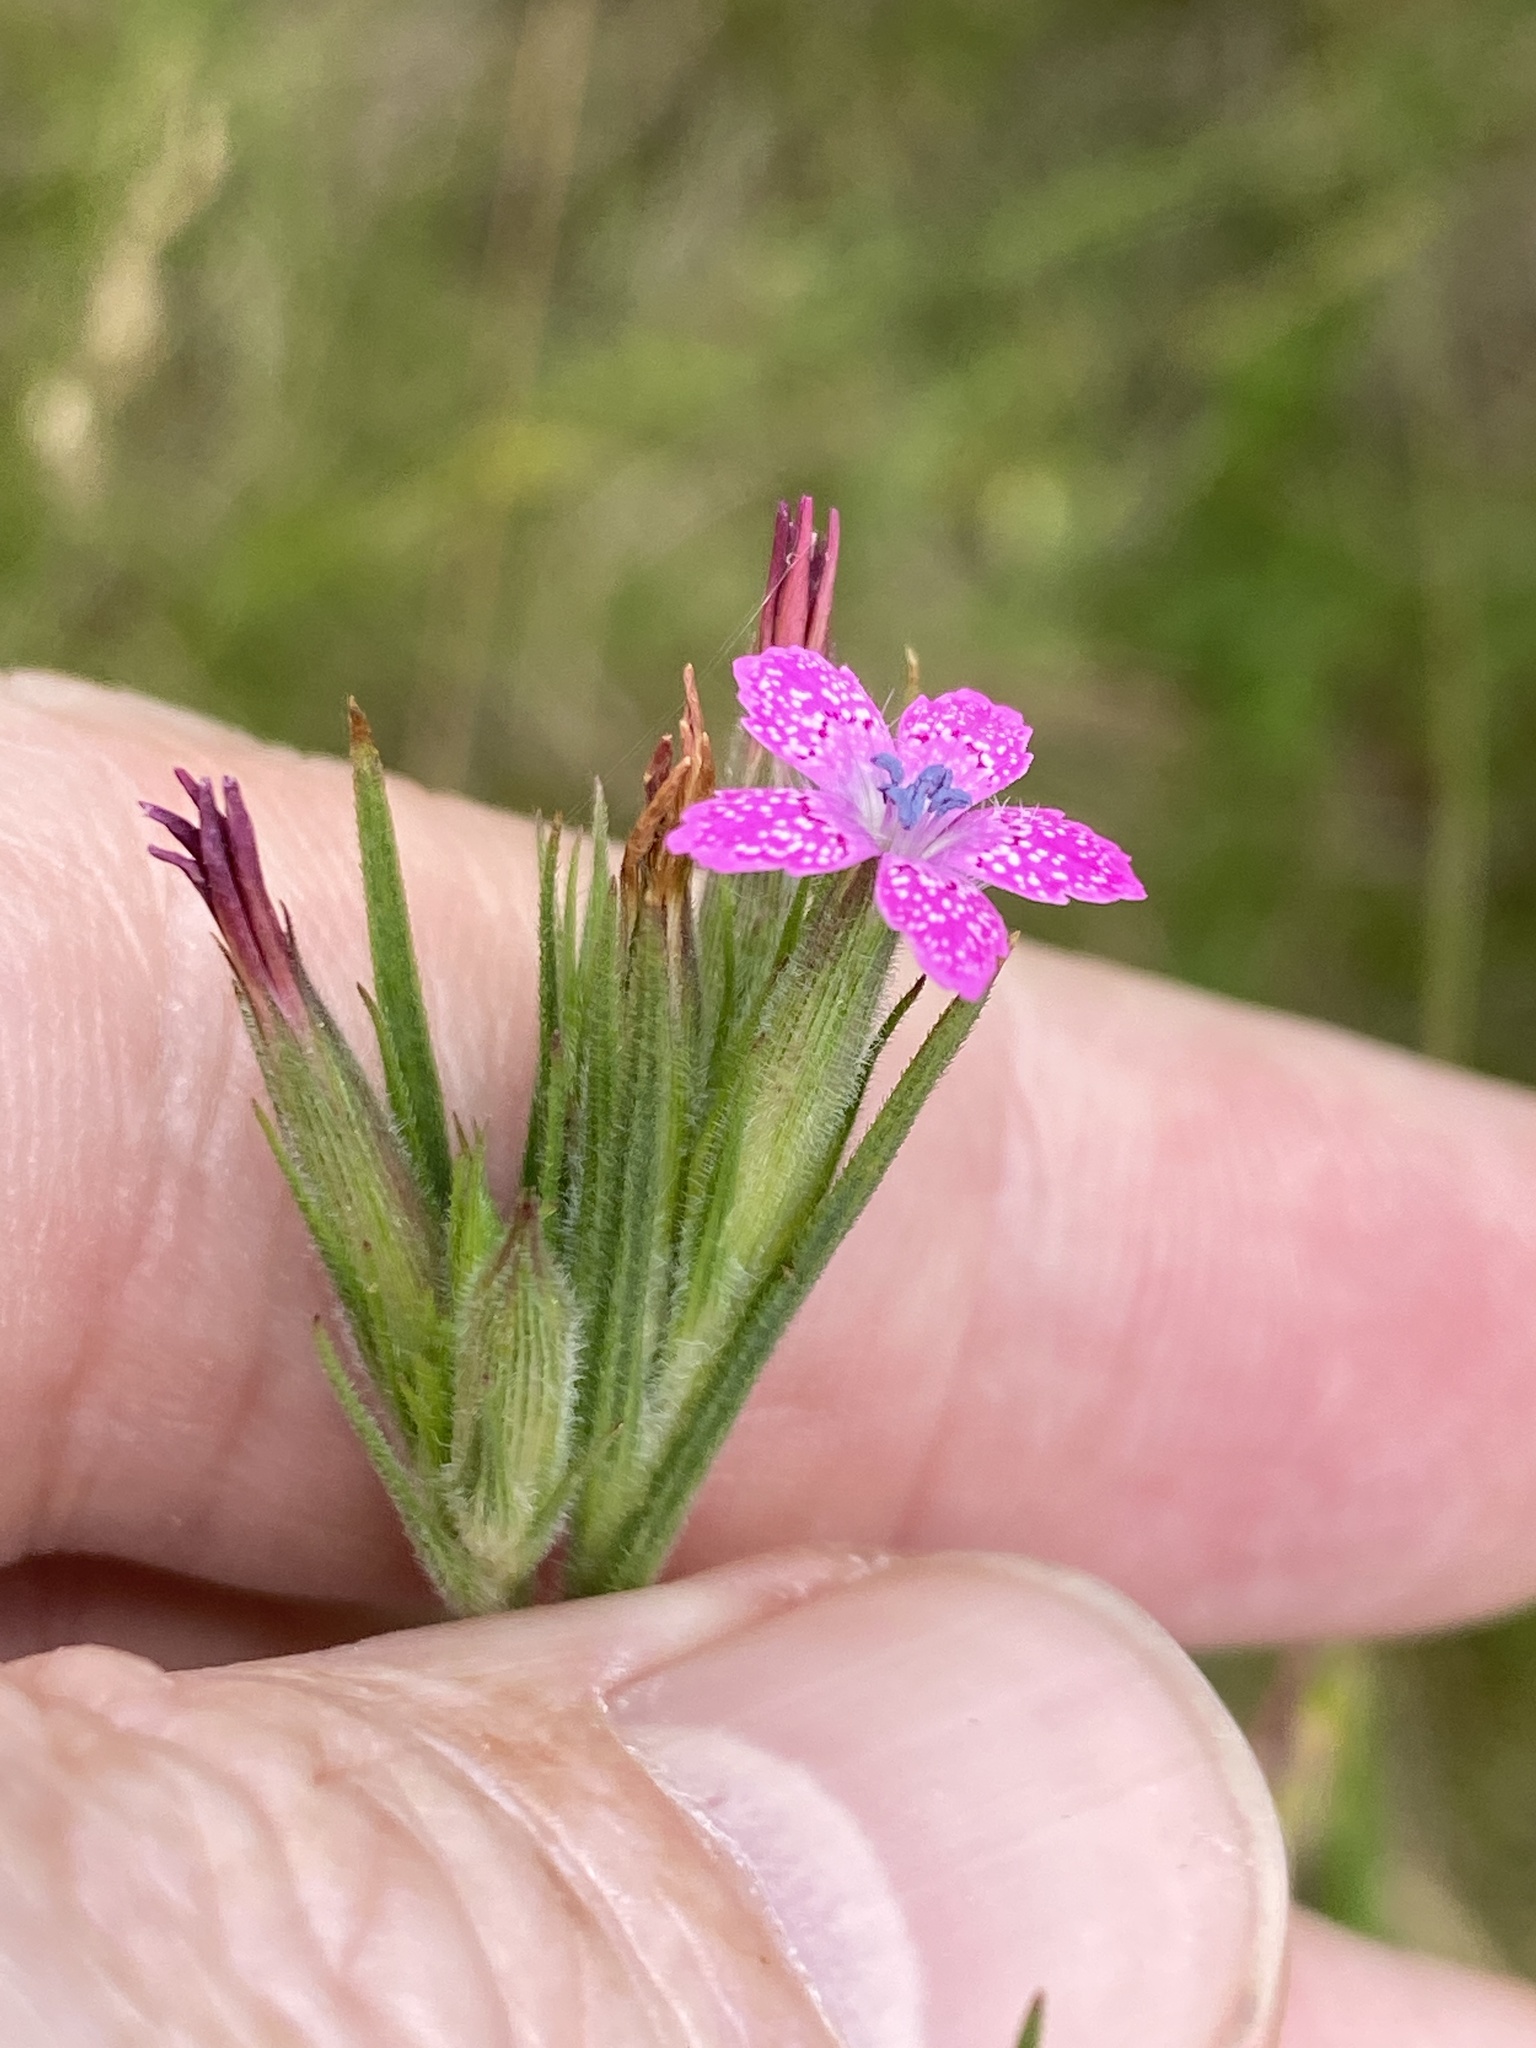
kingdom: Plantae
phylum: Tracheophyta
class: Magnoliopsida
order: Caryophyllales
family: Caryophyllaceae
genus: Dianthus
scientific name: Dianthus armeria
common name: Deptford pink
